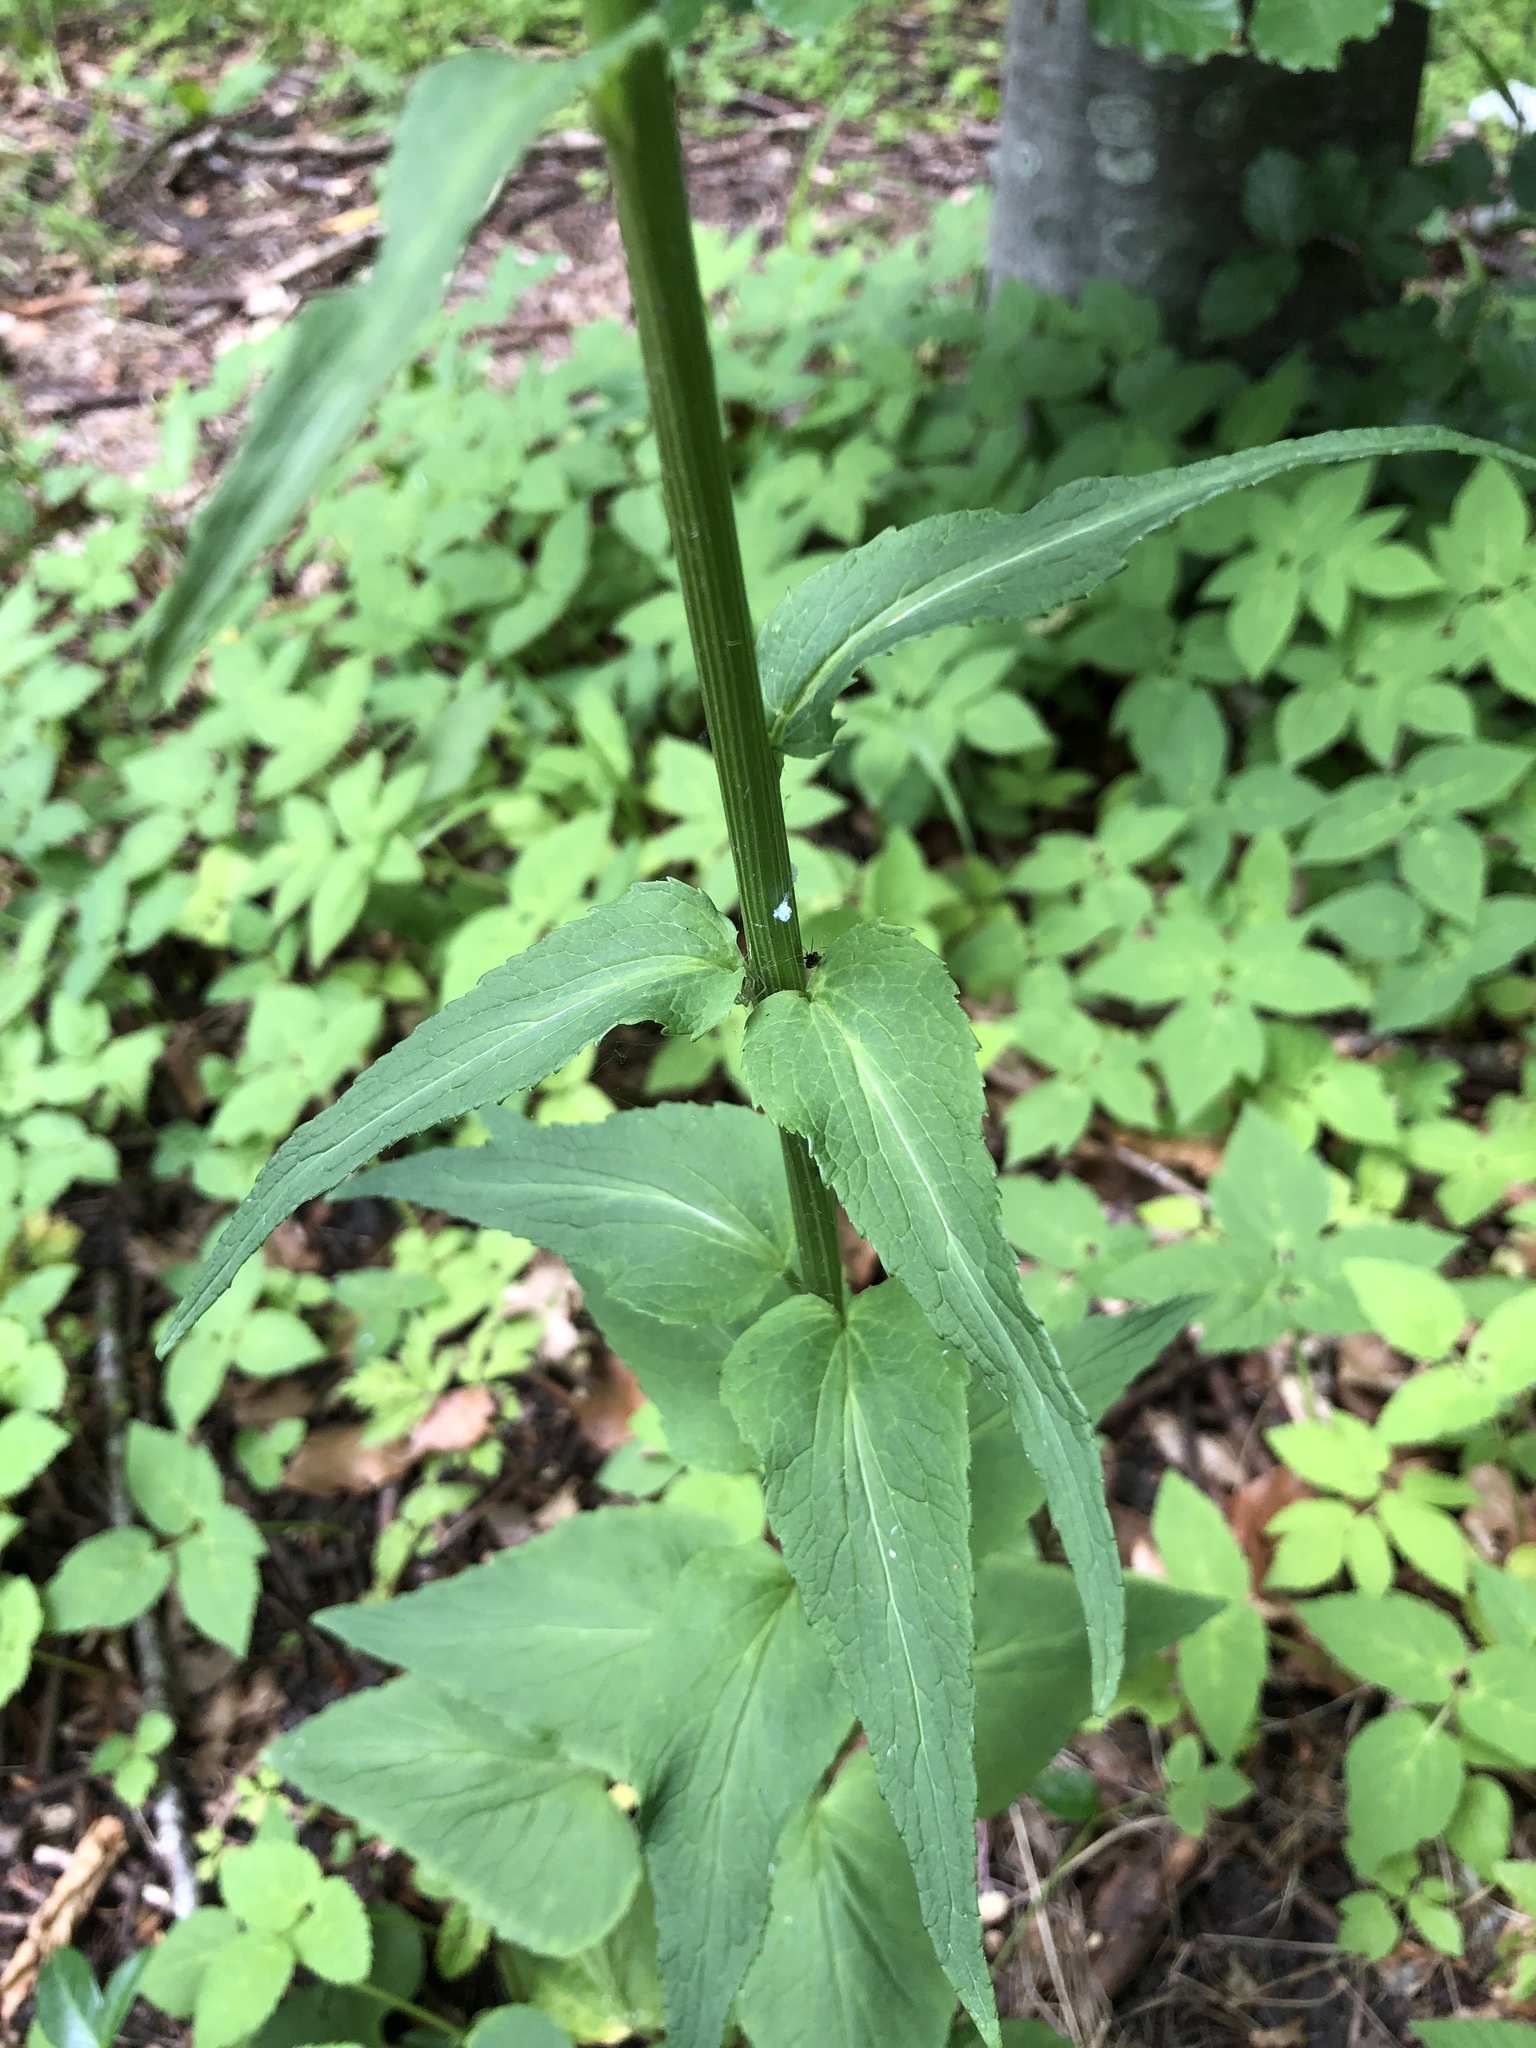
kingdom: Plantae
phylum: Tracheophyta
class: Magnoliopsida
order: Asterales
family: Campanulaceae
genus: Phyteuma
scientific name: Phyteuma spicatum
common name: Spiked rampion
